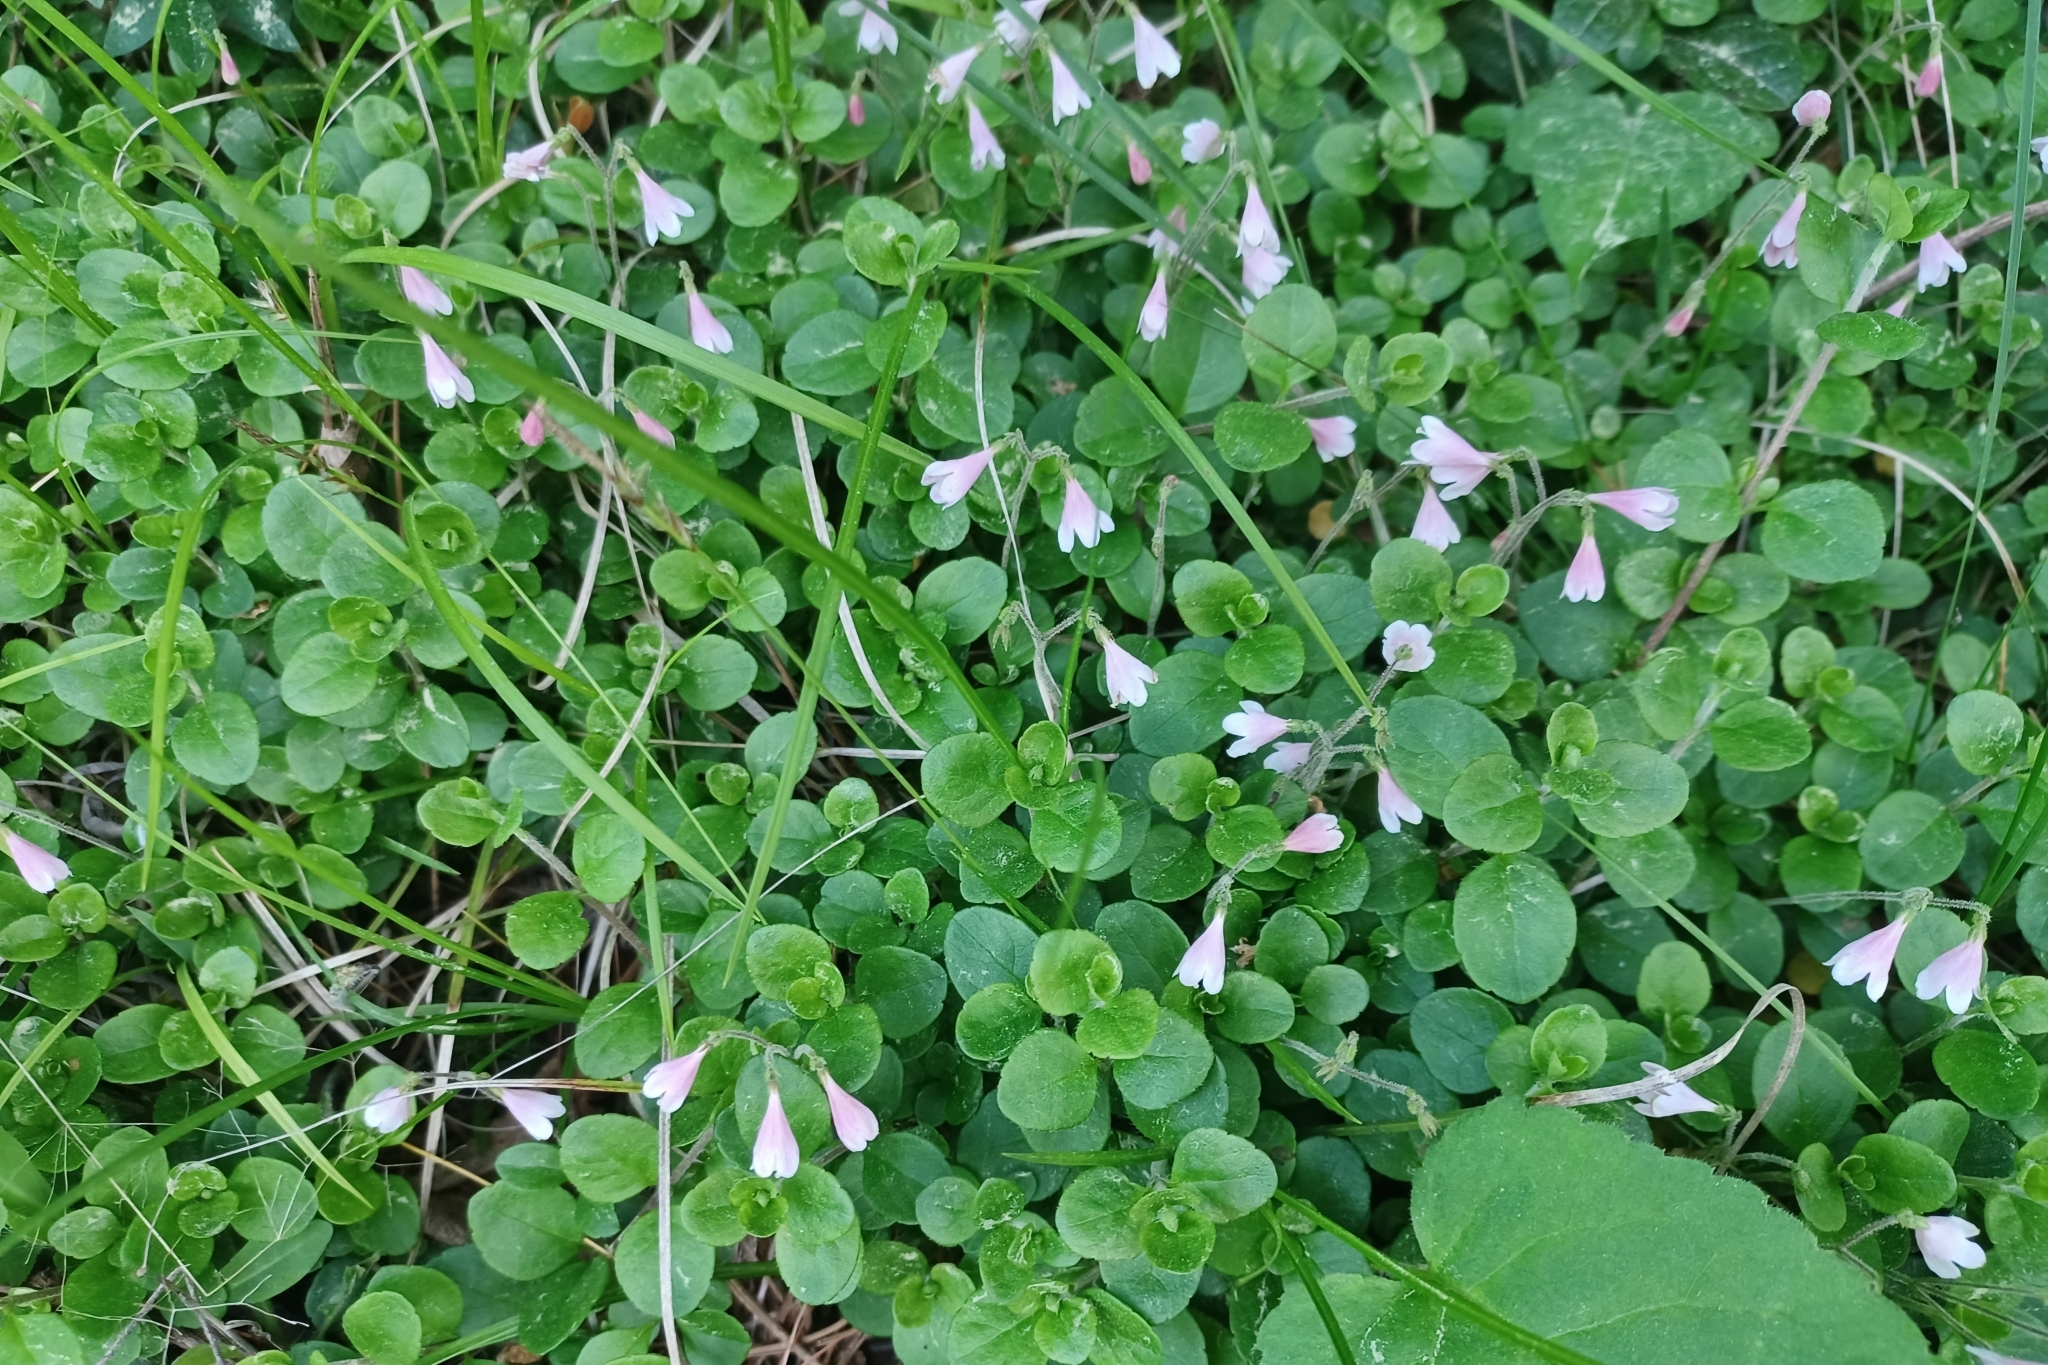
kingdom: Plantae
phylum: Tracheophyta
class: Magnoliopsida
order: Dipsacales
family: Caprifoliaceae
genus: Linnaea
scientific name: Linnaea borealis
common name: Twinflower
